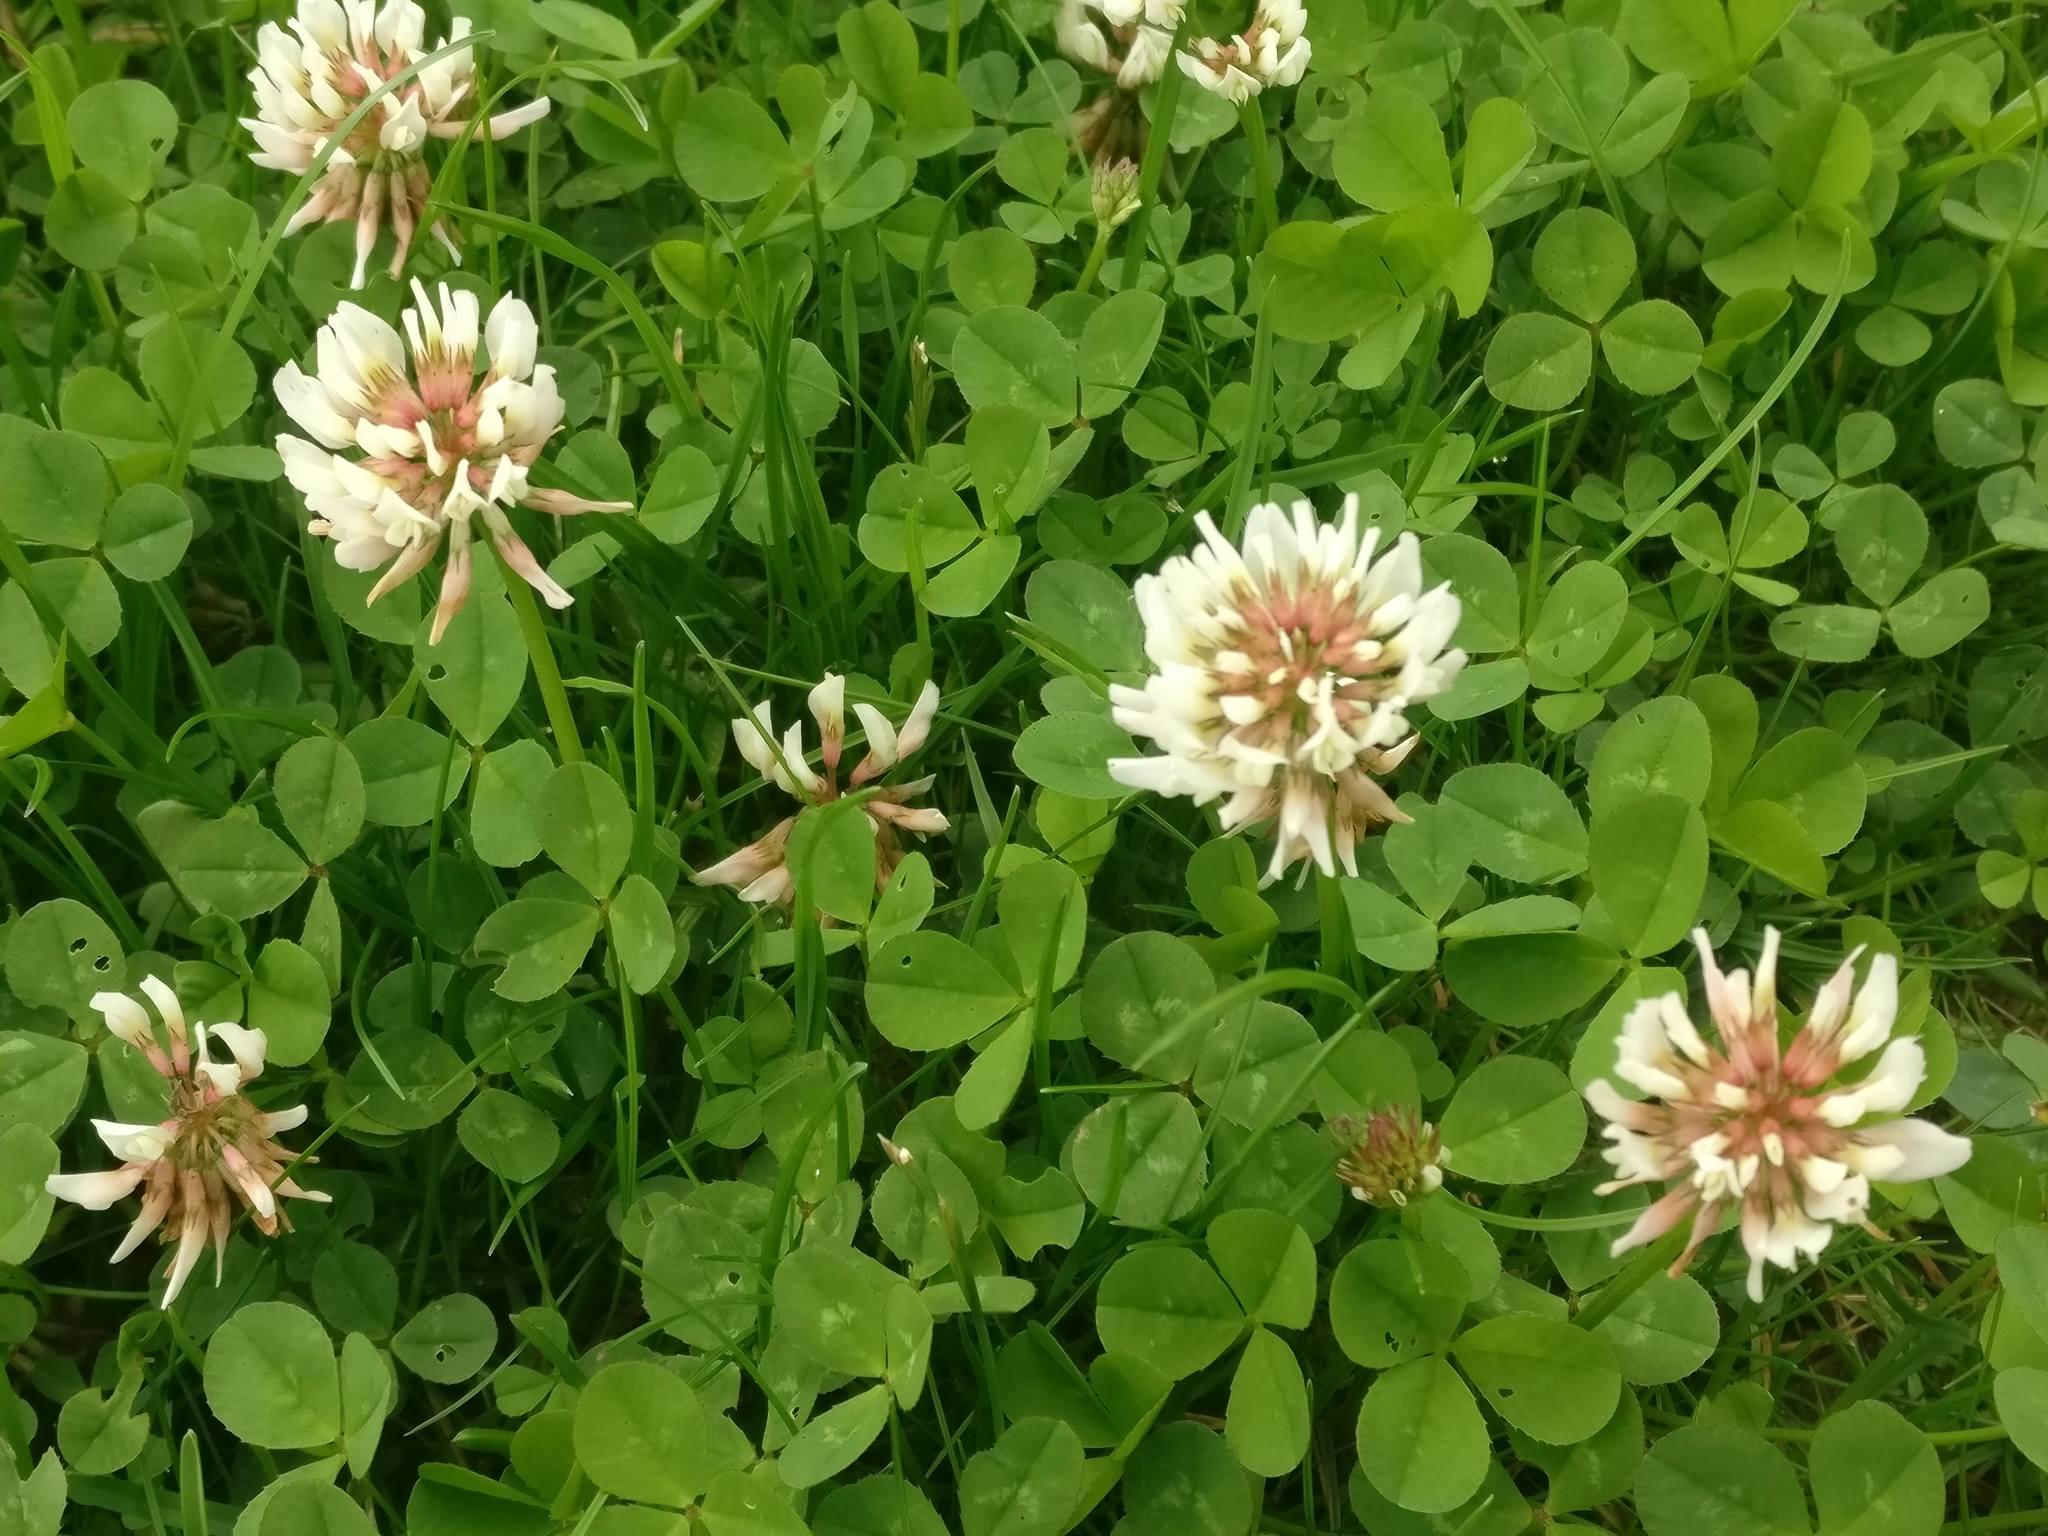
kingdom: Plantae
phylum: Tracheophyta
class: Magnoliopsida
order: Fabales
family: Fabaceae
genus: Trifolium
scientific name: Trifolium repens
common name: White clover
